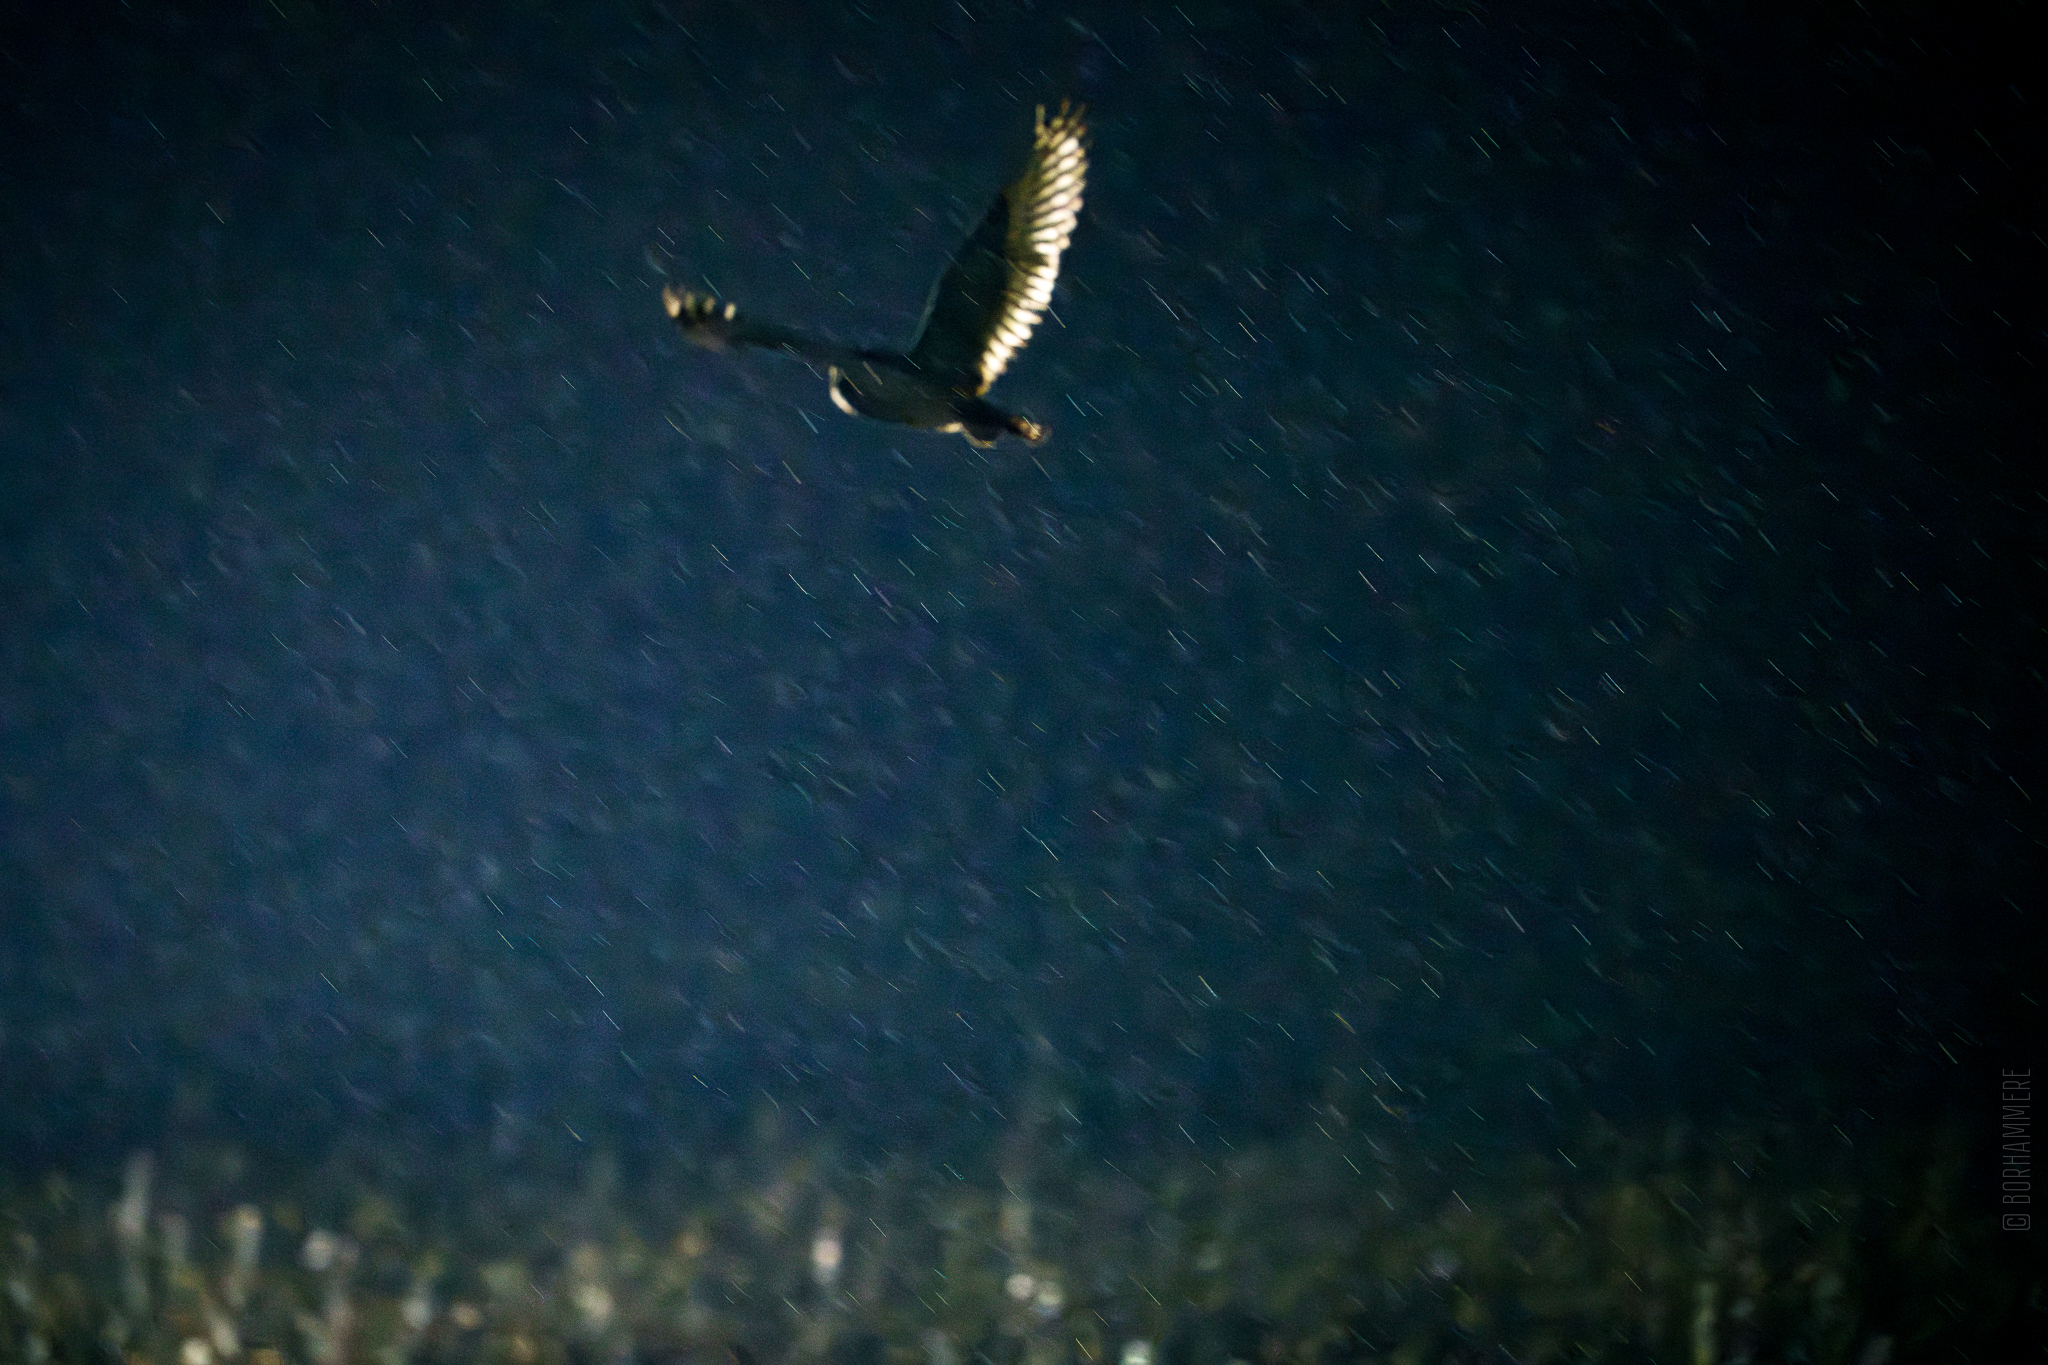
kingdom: Animalia
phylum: Chordata
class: Aves
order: Strigiformes
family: Strigidae
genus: Asio
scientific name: Asio flammeus
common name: Short-eared owl
